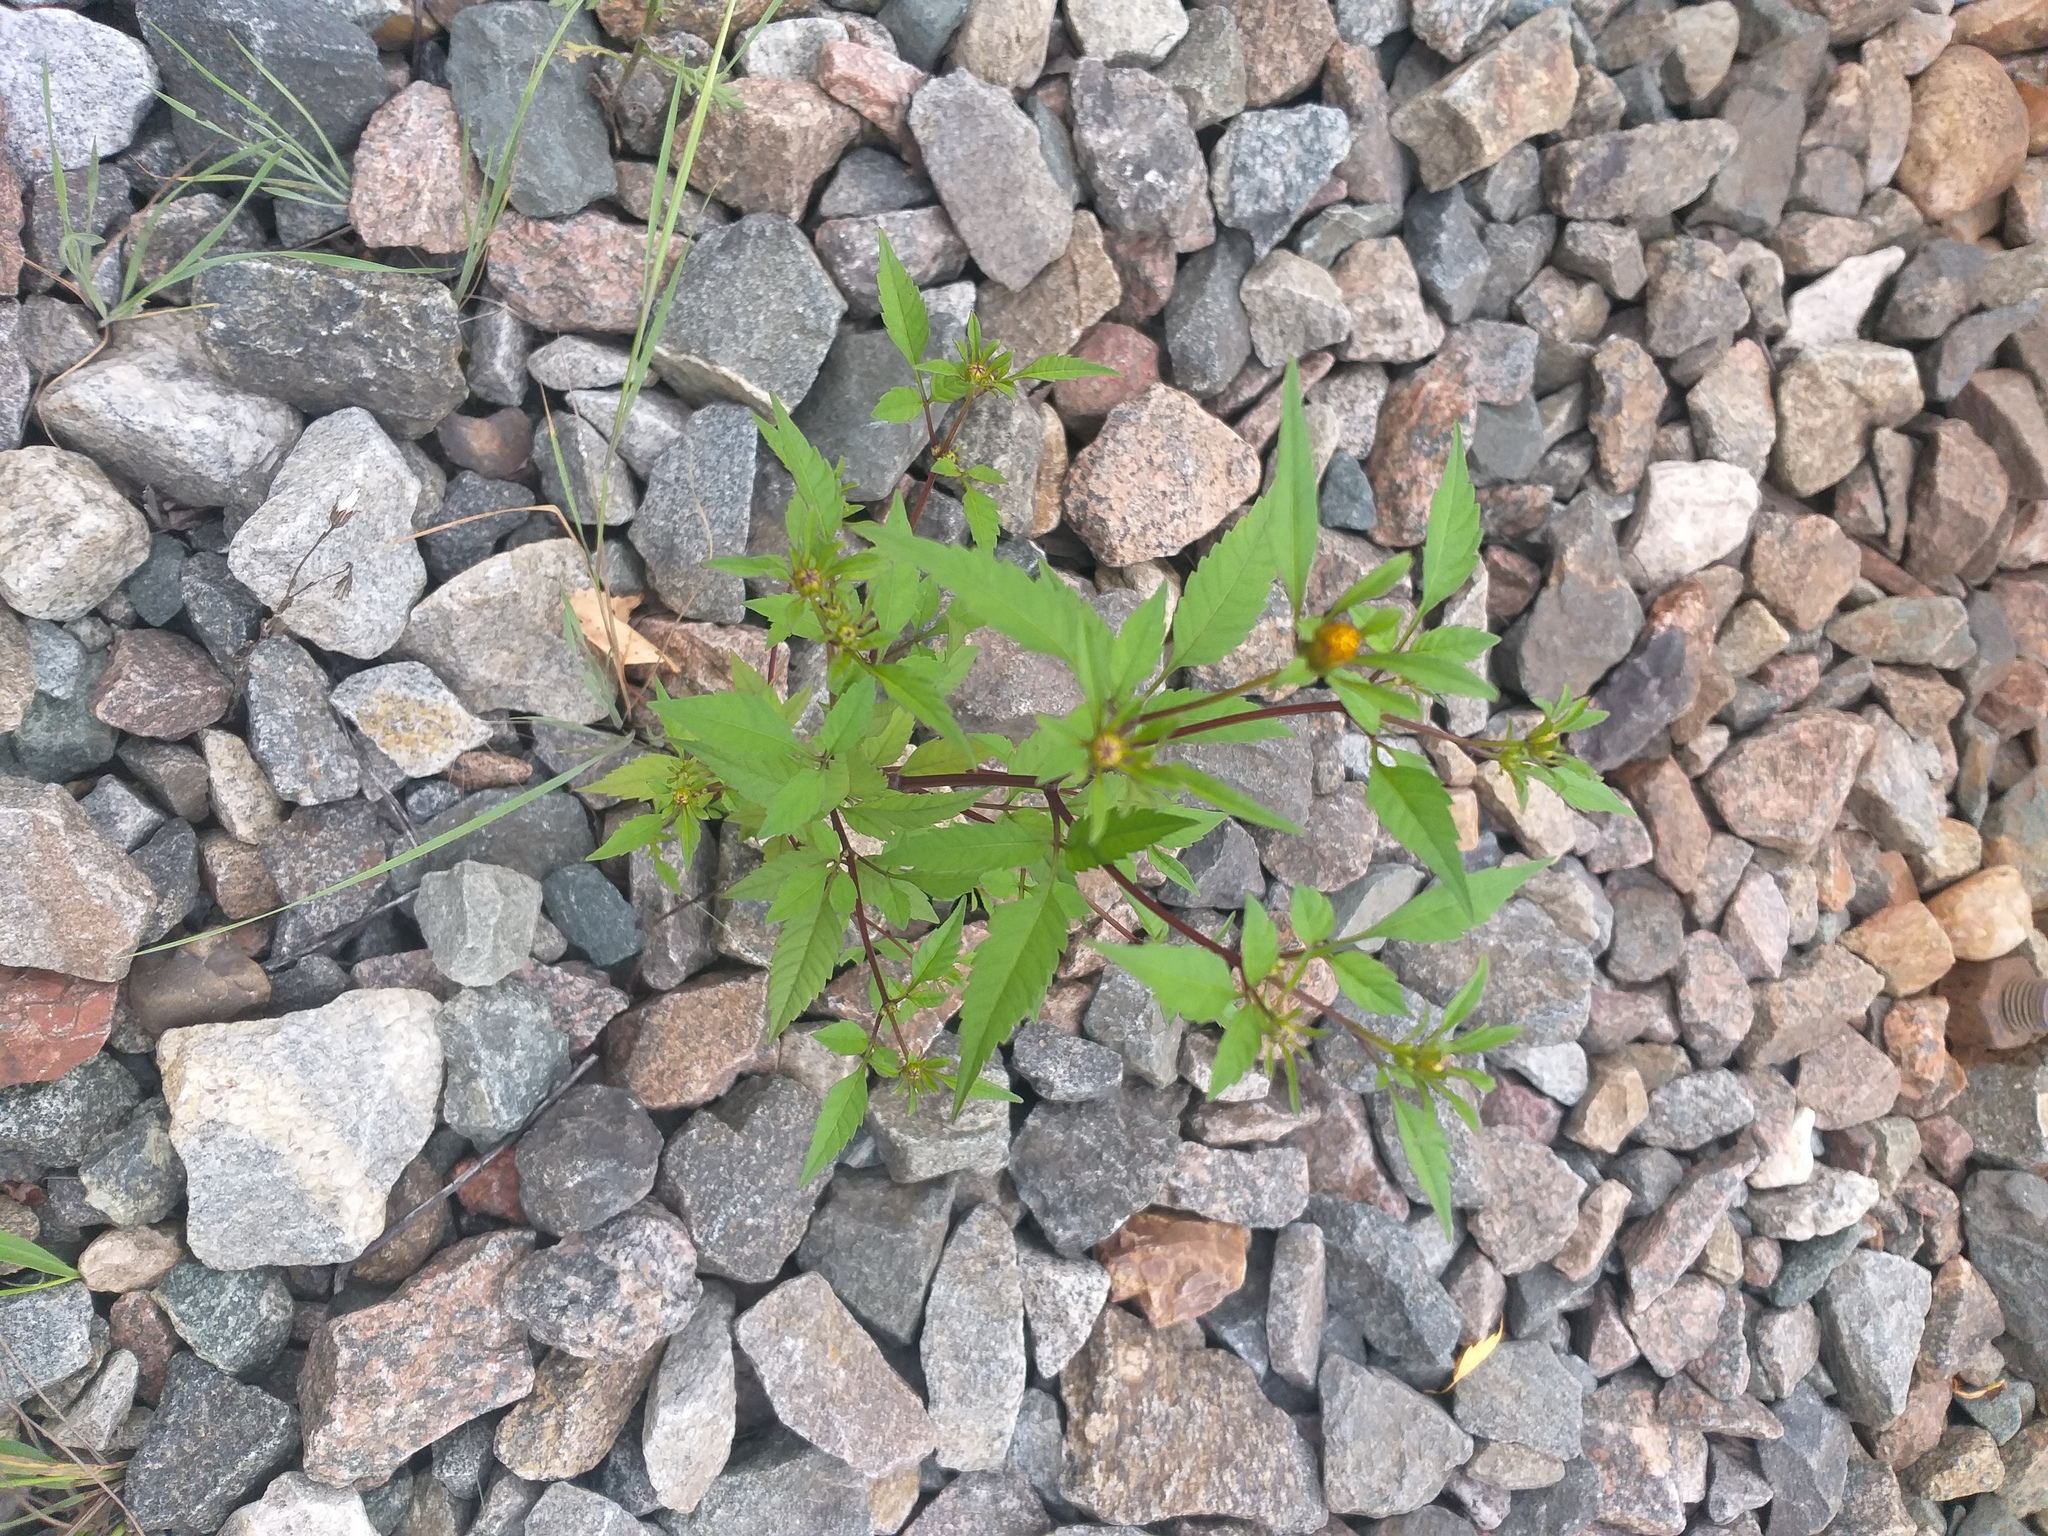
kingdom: Plantae
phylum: Tracheophyta
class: Magnoliopsida
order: Asterales
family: Asteraceae
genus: Bidens
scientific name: Bidens frondosa
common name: Beggarticks
